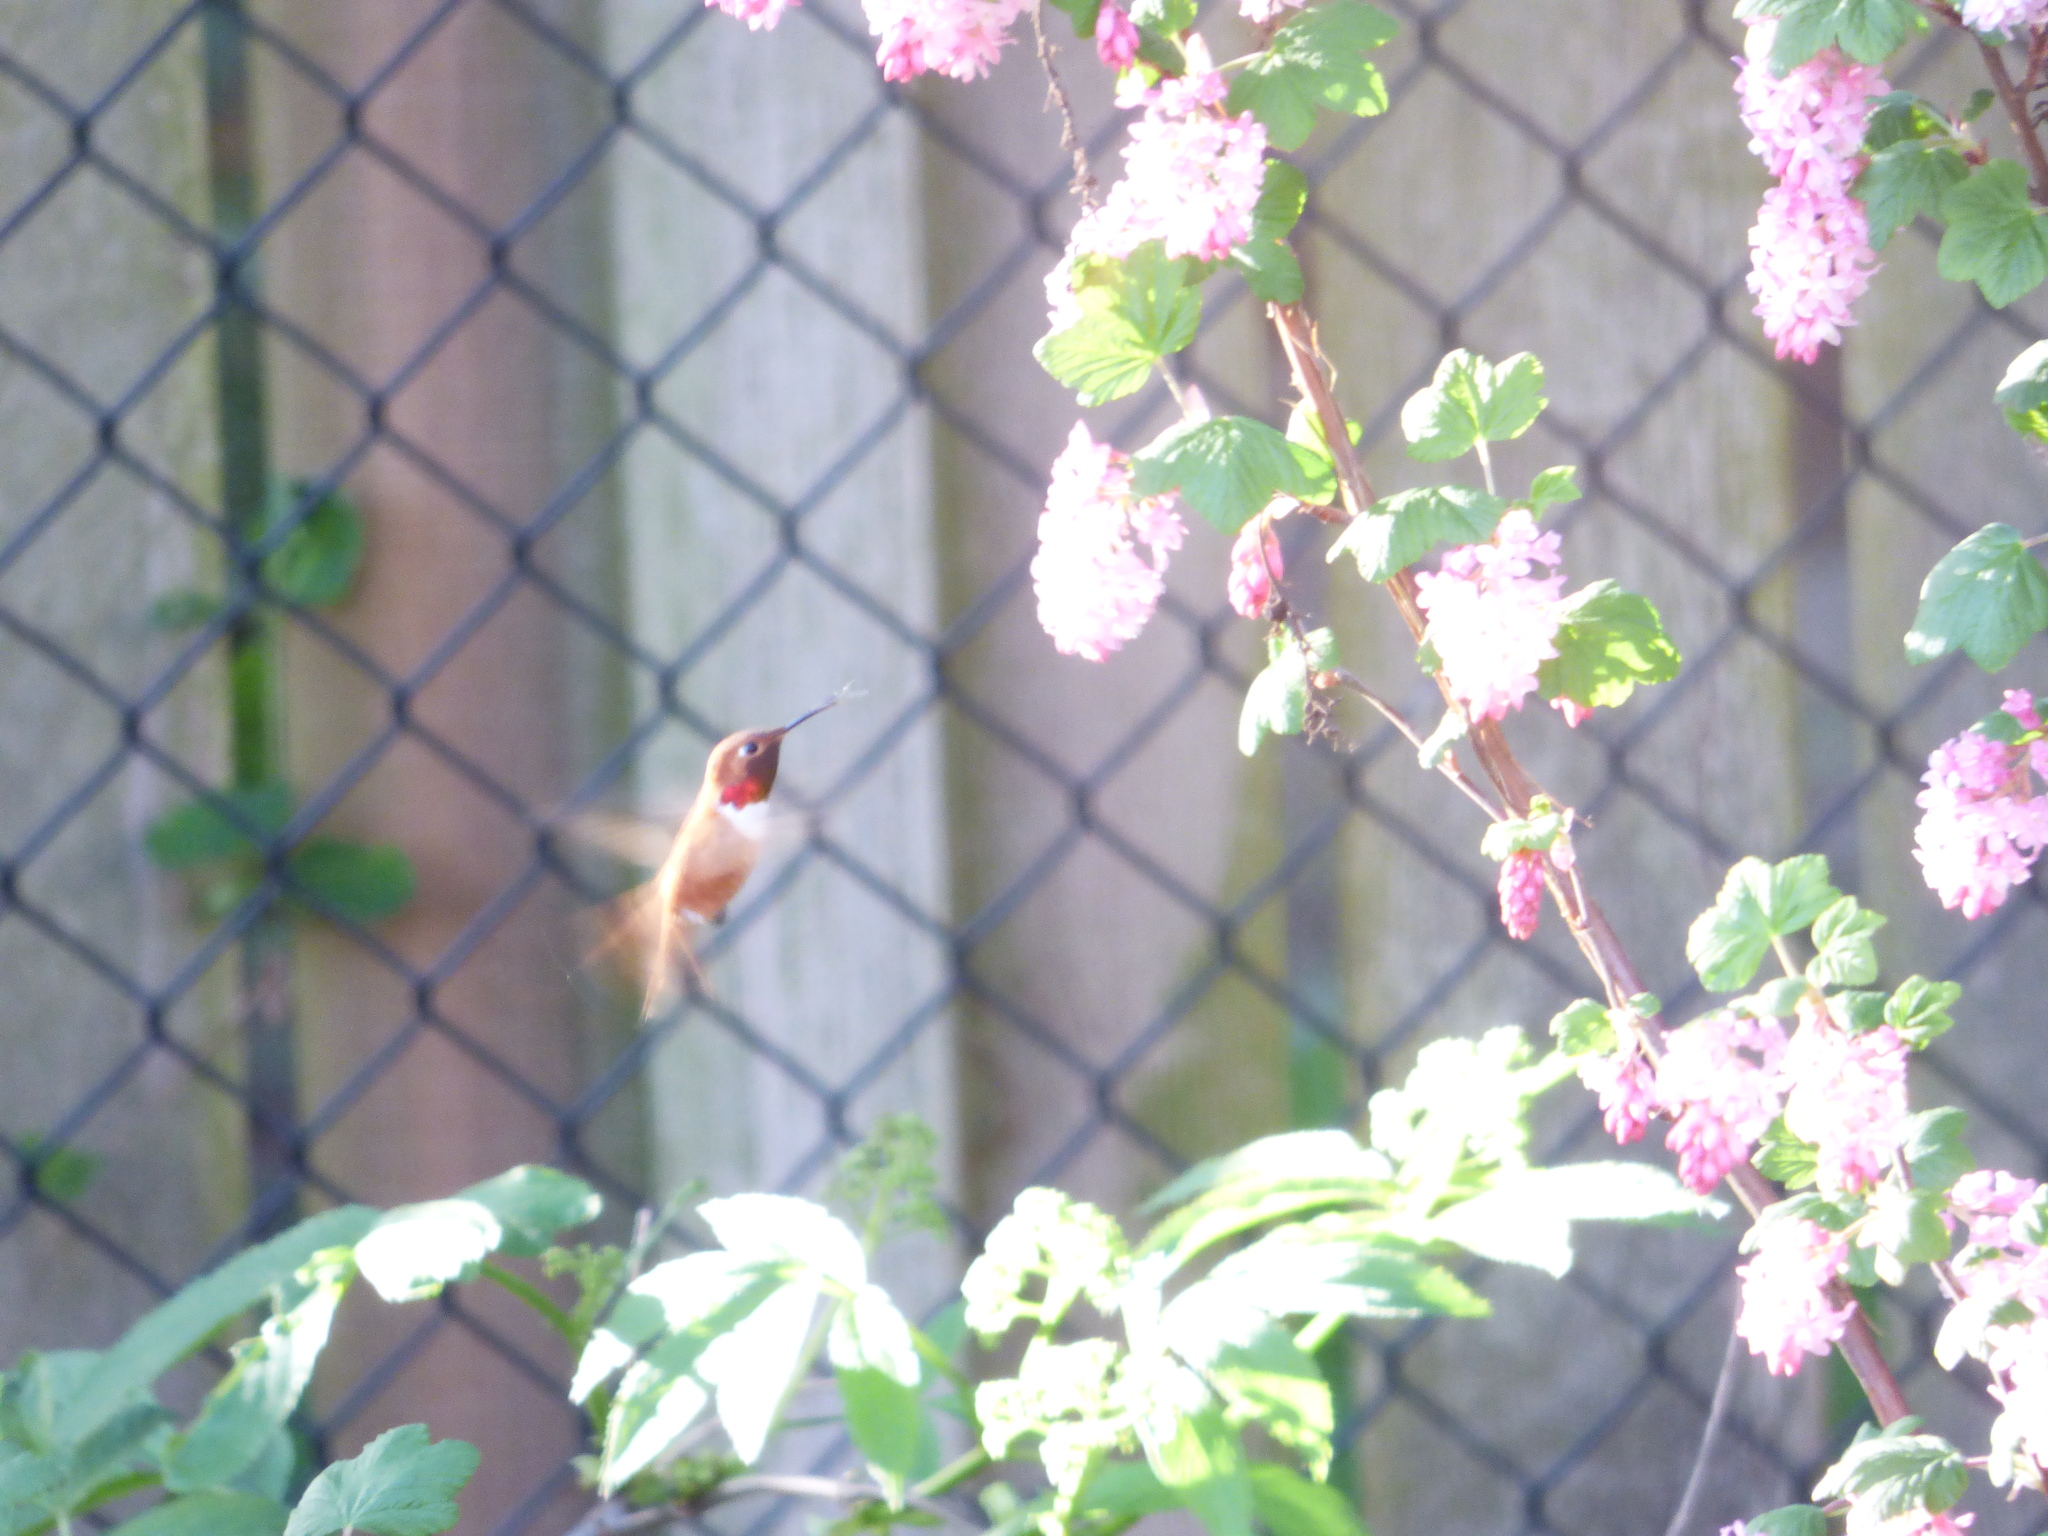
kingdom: Animalia
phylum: Chordata
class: Aves
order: Apodiformes
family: Trochilidae
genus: Selasphorus
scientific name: Selasphorus rufus
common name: Rufous hummingbird
